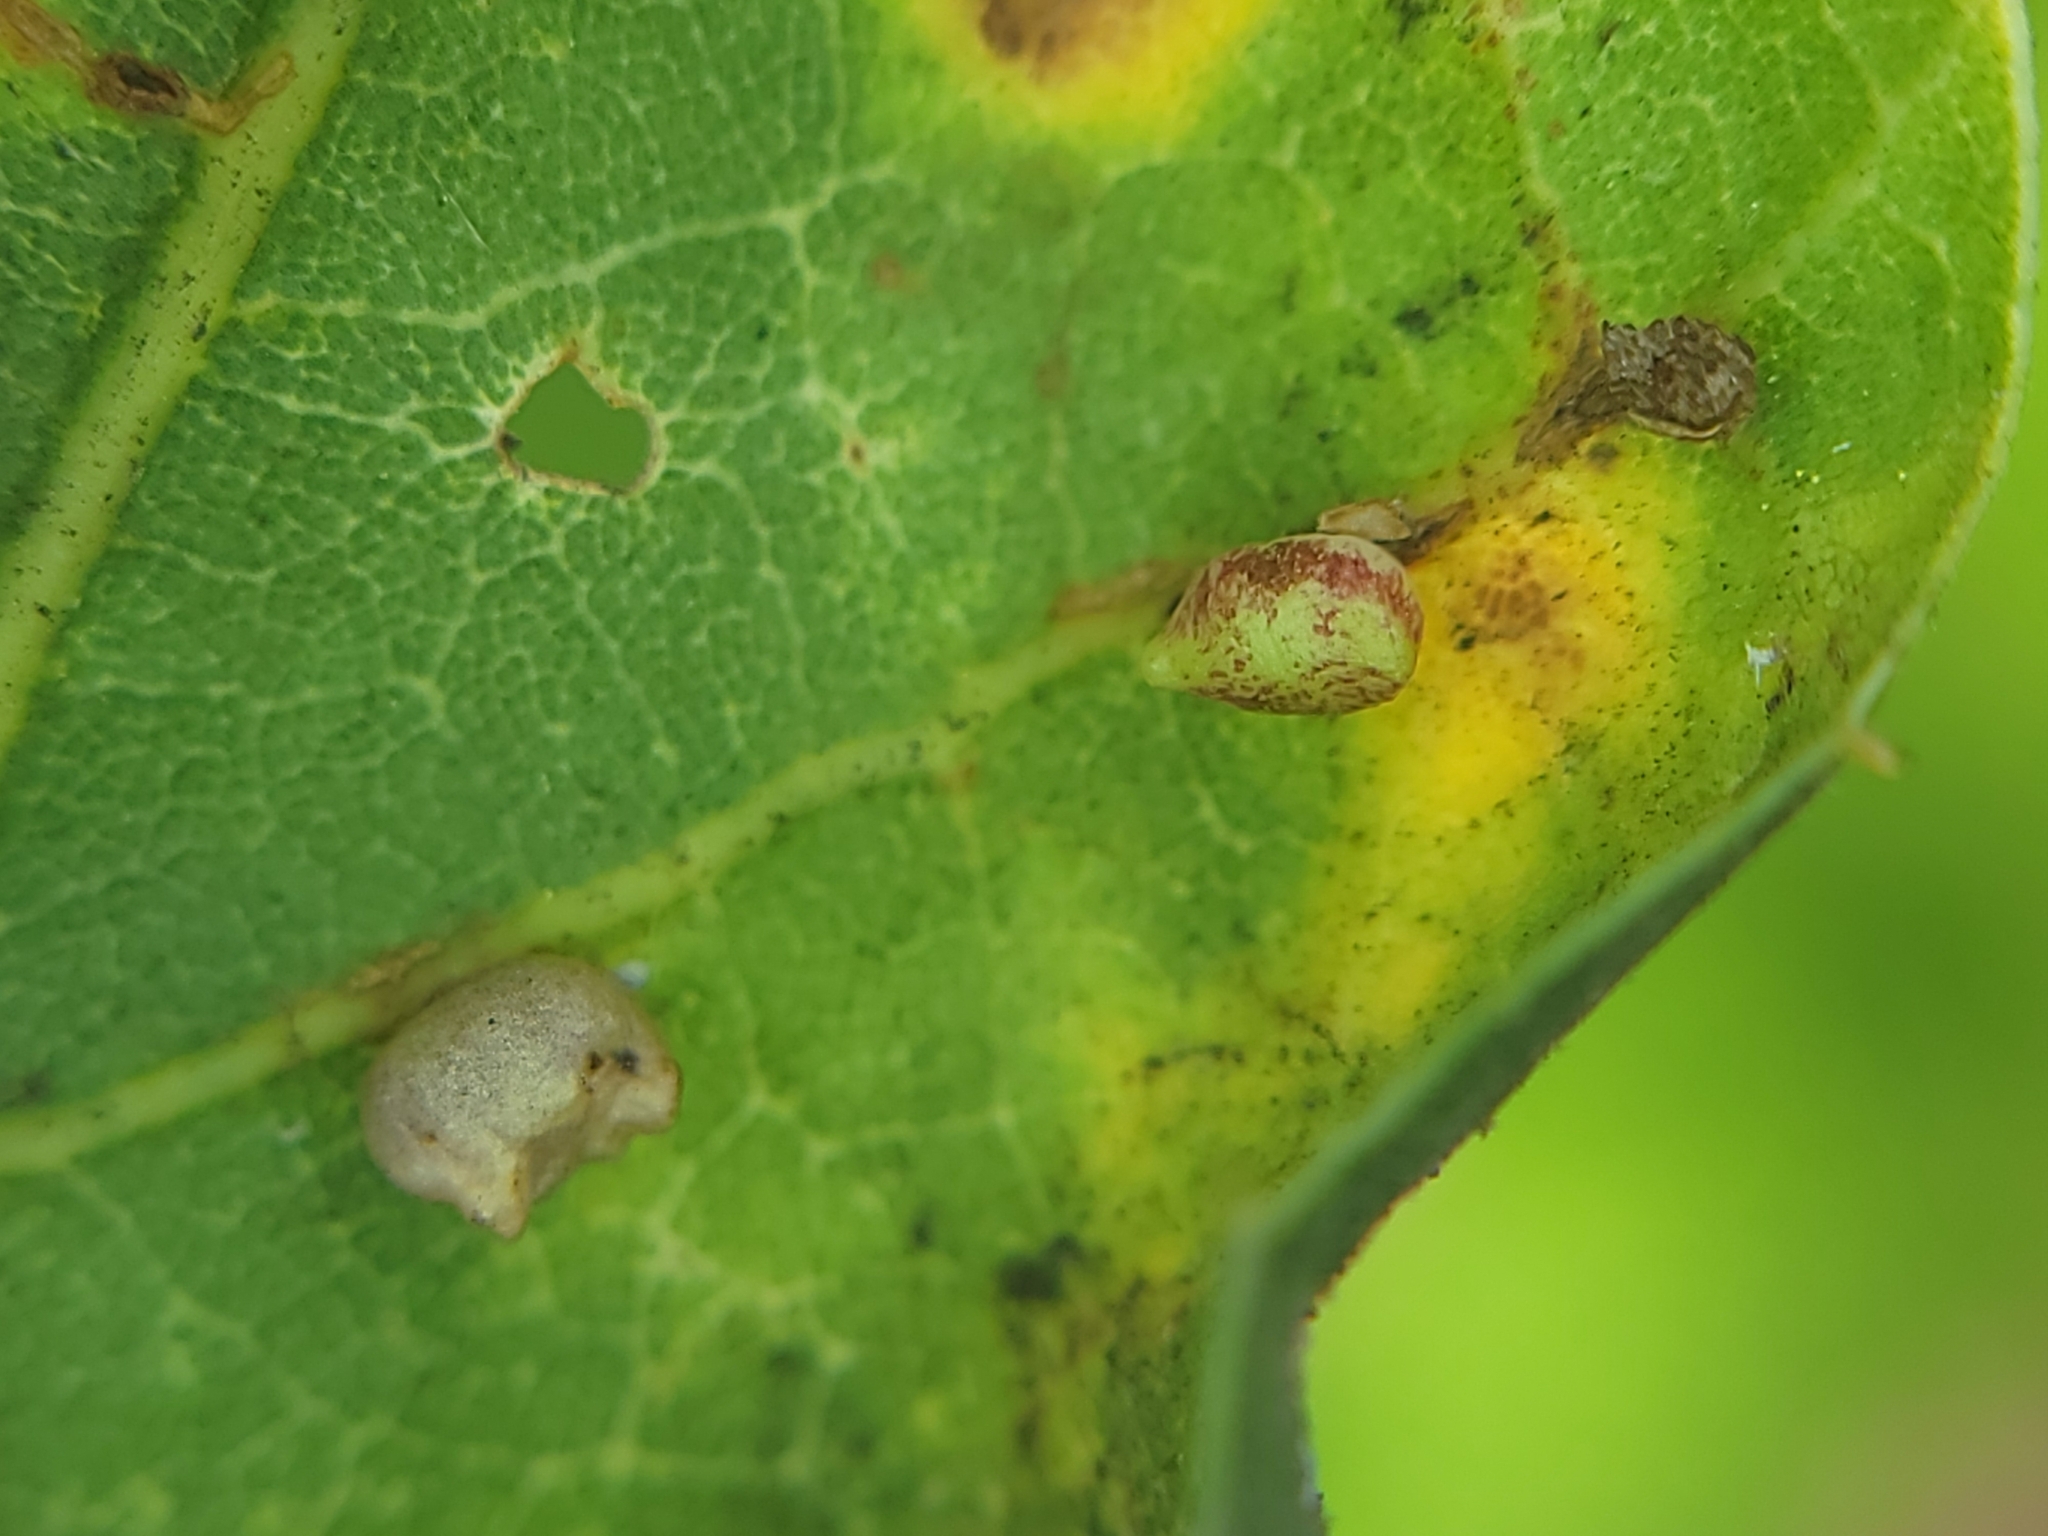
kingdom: Animalia
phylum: Arthropoda
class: Insecta
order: Hymenoptera
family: Cynipidae
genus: Dryocosmus
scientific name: Dryocosmus
